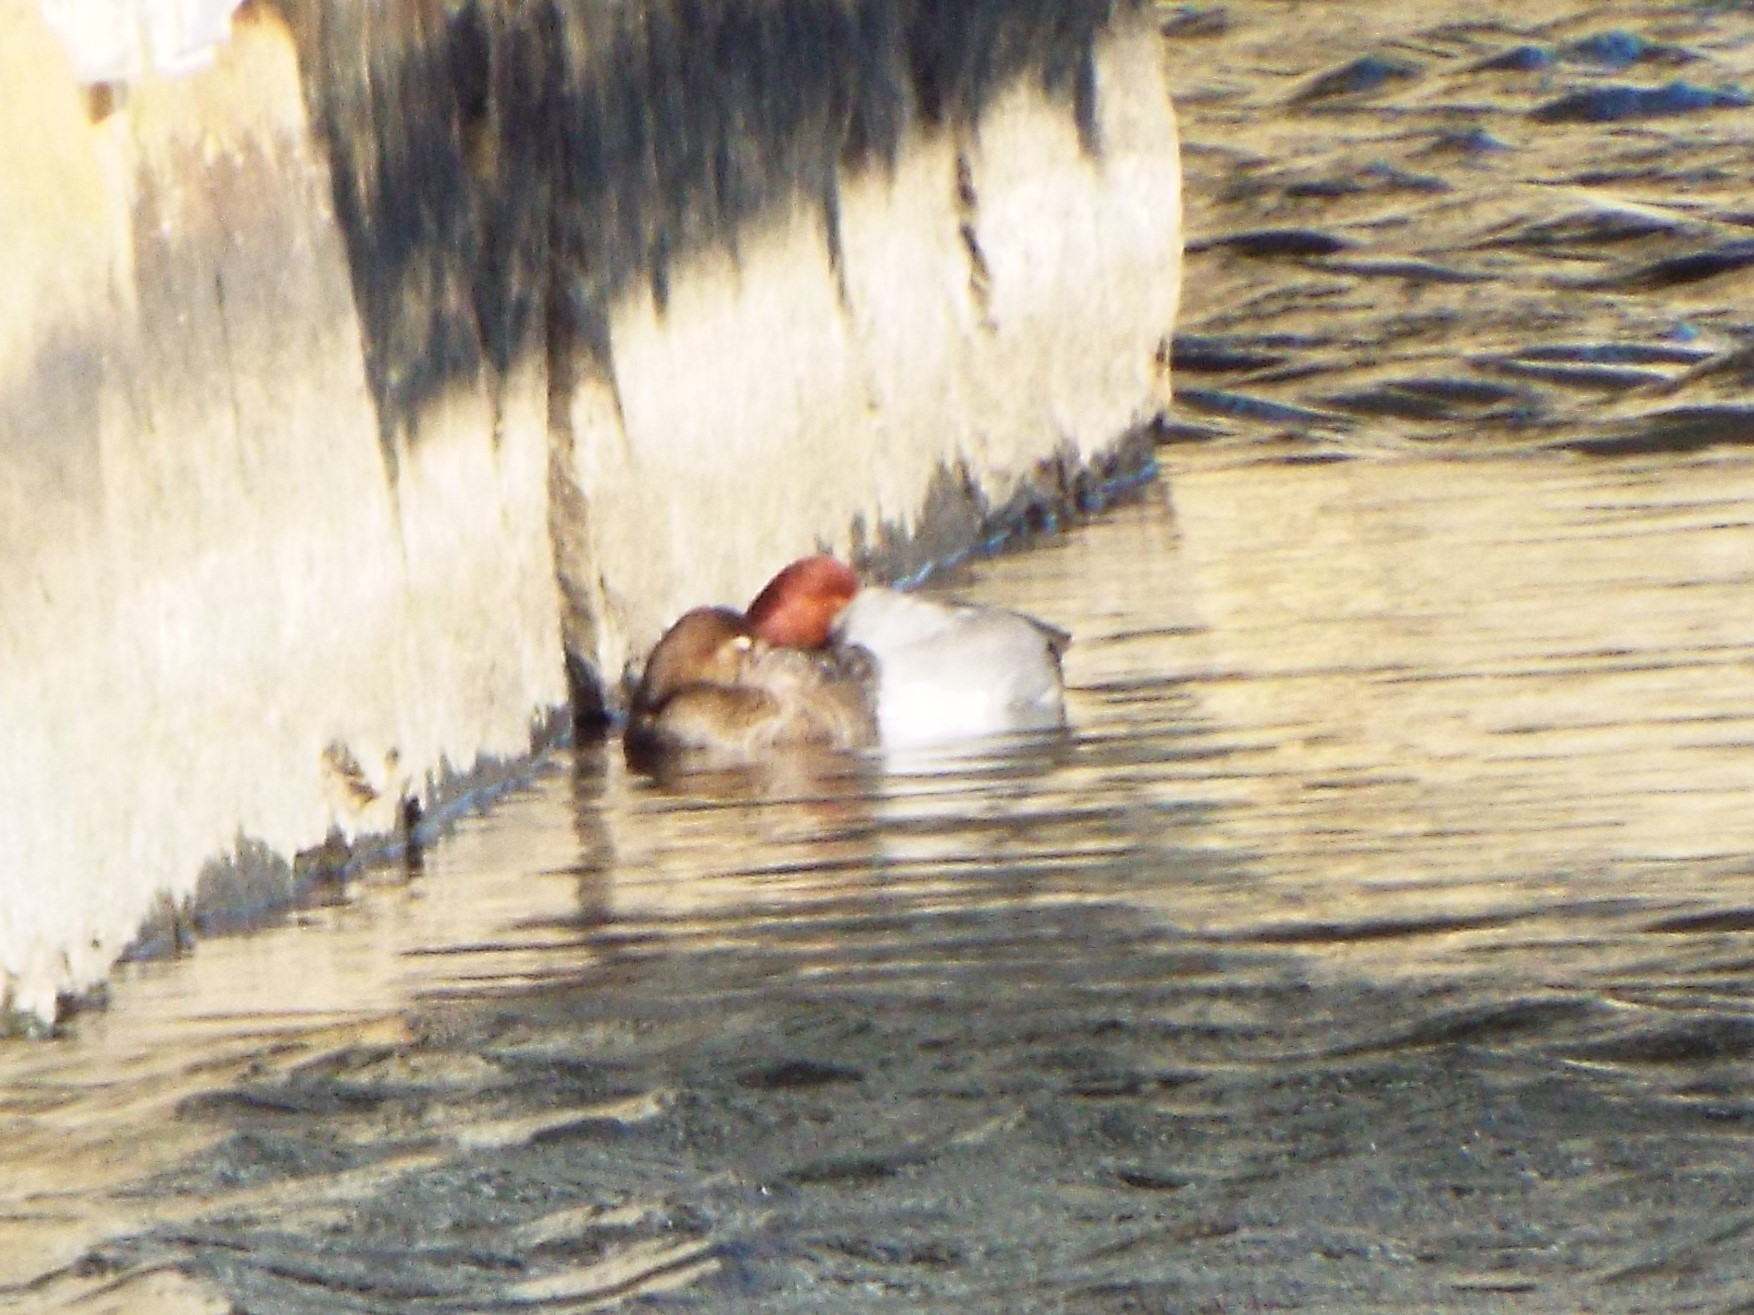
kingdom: Animalia
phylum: Chordata
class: Aves
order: Anseriformes
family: Anatidae
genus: Aythya
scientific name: Aythya americana
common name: Redhead
